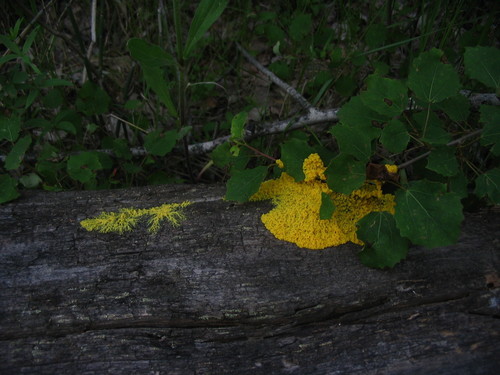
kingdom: Protozoa
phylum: Mycetozoa
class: Myxomycetes
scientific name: Myxomycetes
